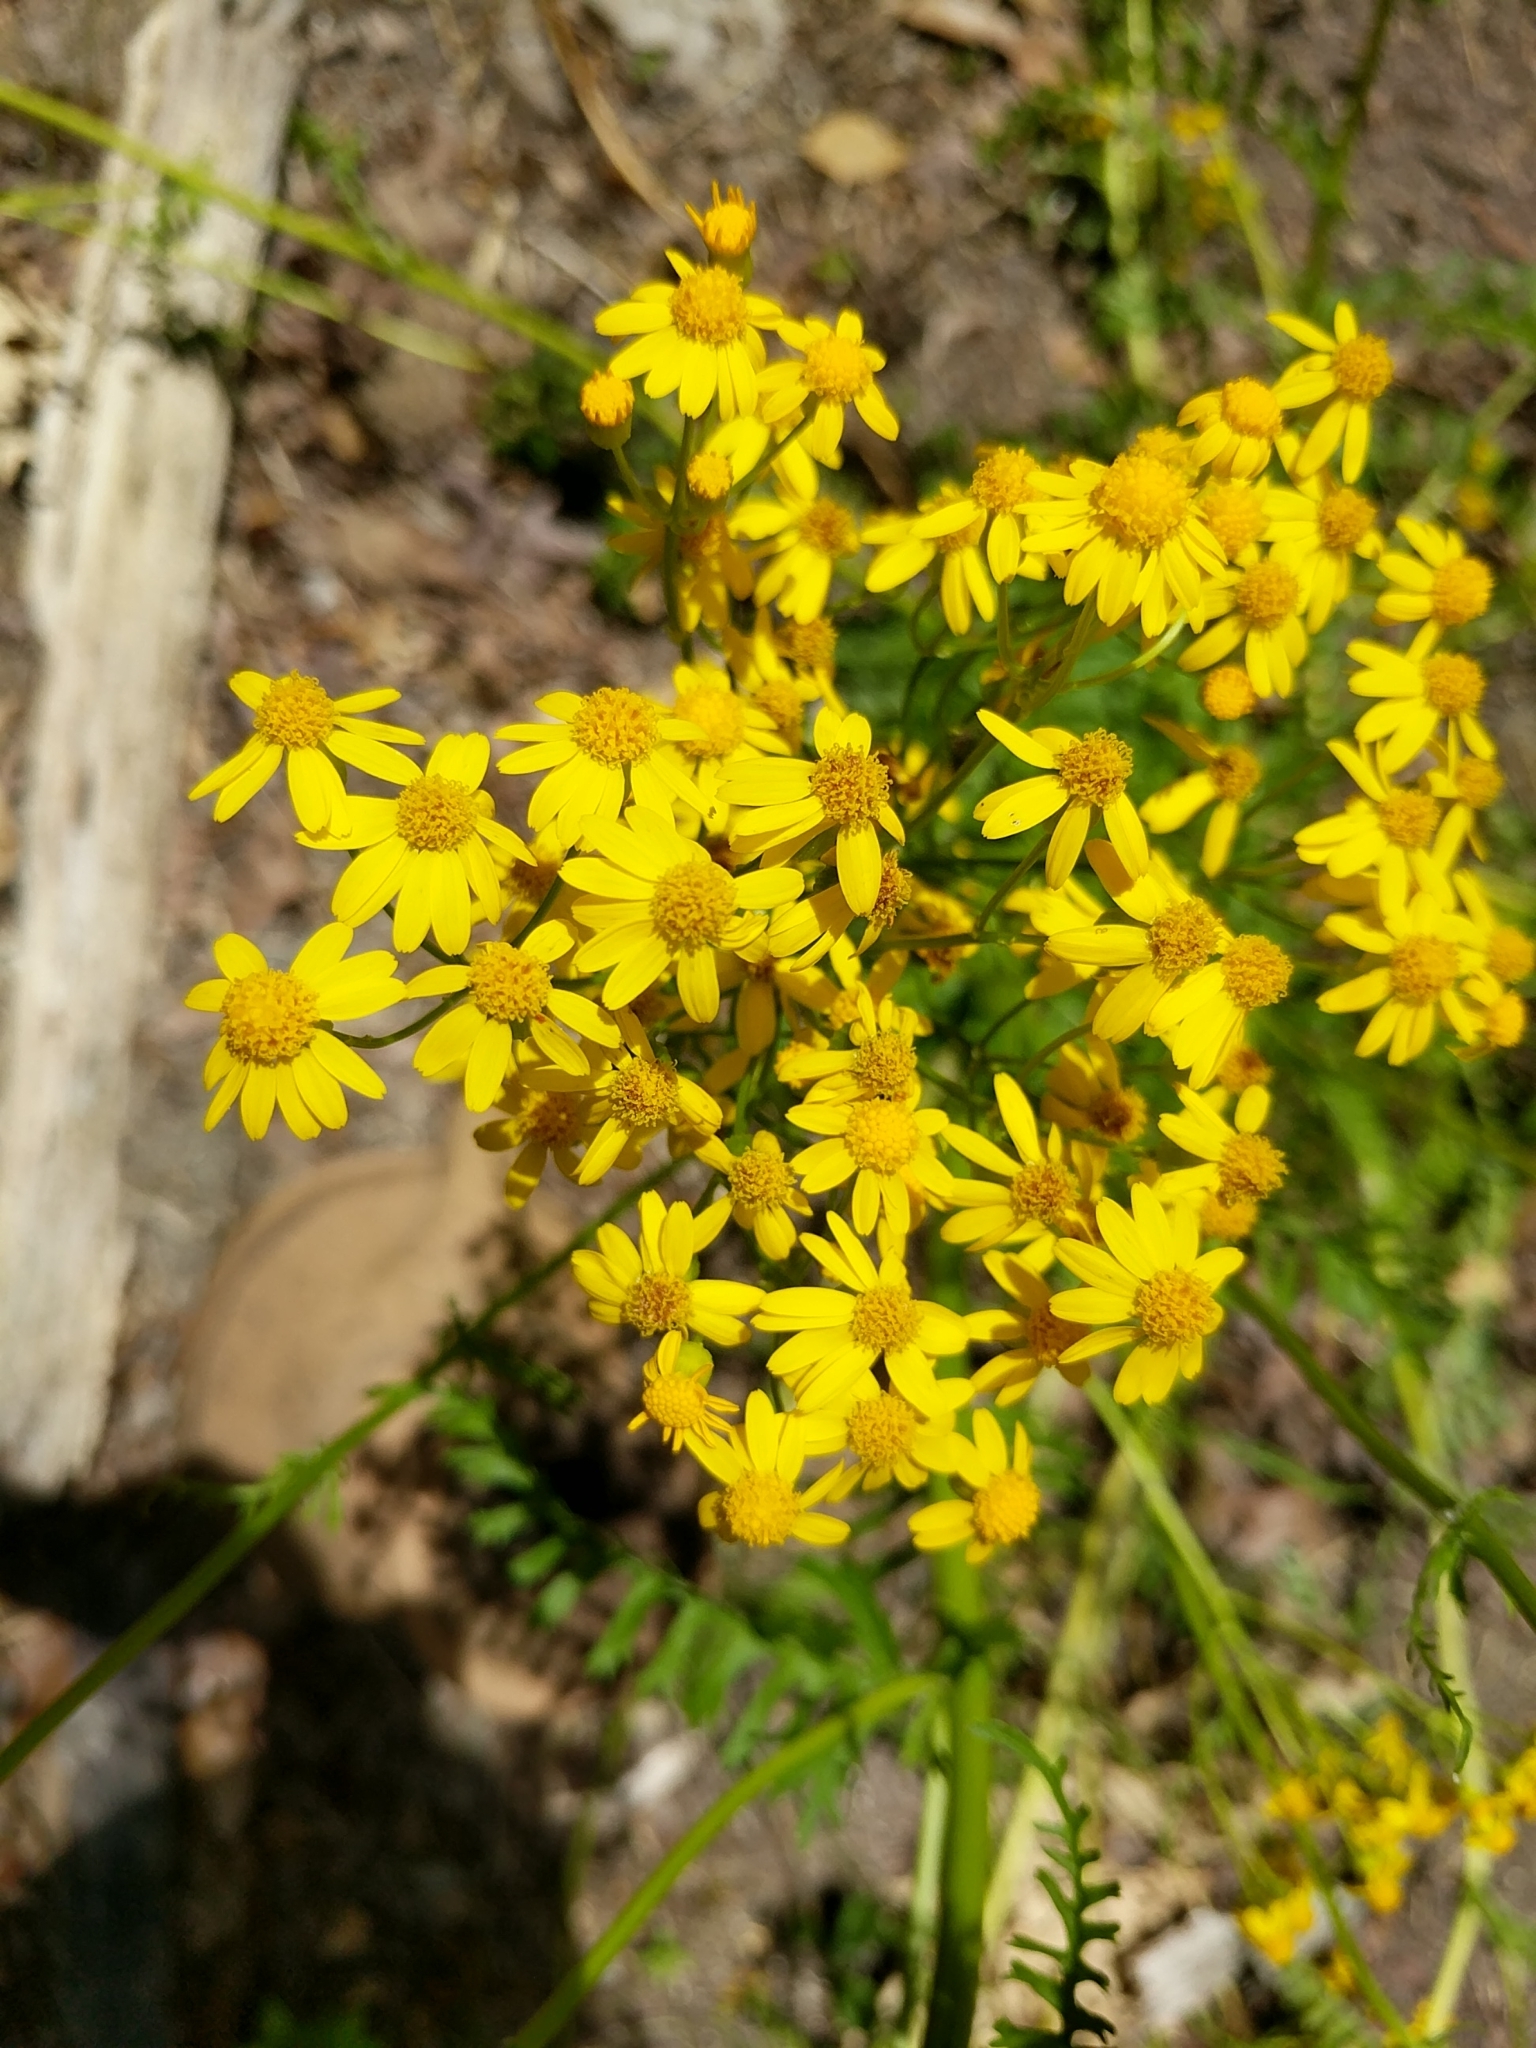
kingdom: Plantae
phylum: Tracheophyta
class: Magnoliopsida
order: Asterales
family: Asteraceae
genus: Packera
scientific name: Packera anonyma
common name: Small ragwort
